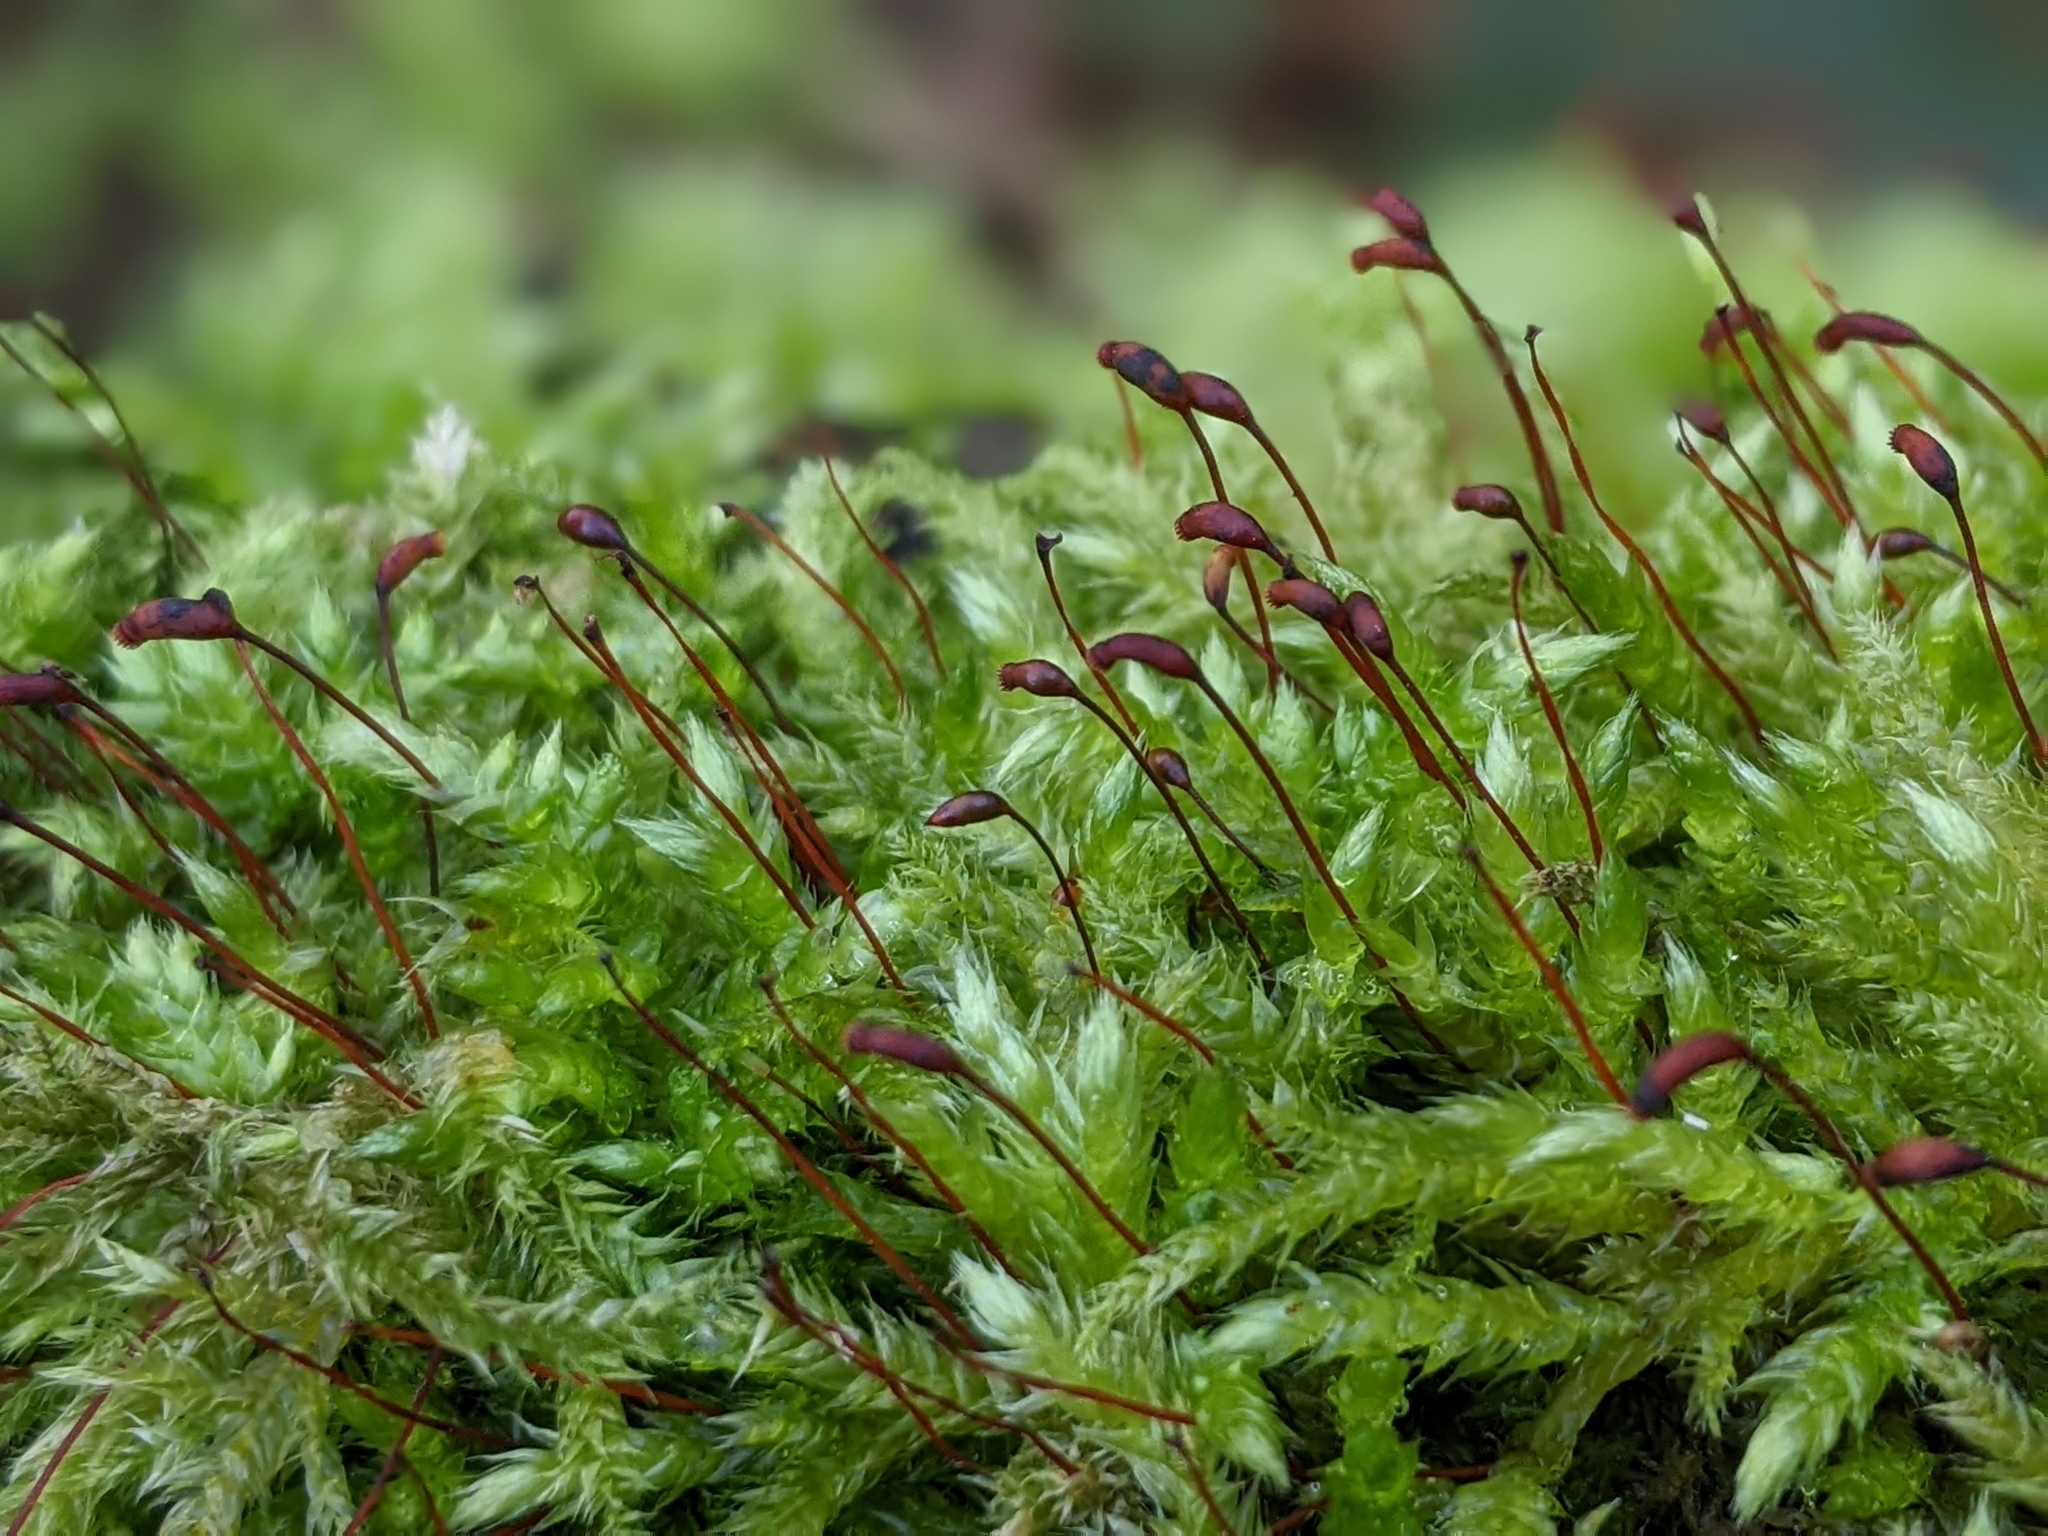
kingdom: Plantae
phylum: Bryophyta
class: Bryopsida
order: Hypnales
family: Brachytheciaceae
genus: Brachythecium
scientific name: Brachythecium rutabulum
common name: Rough-stalked feather-moss
